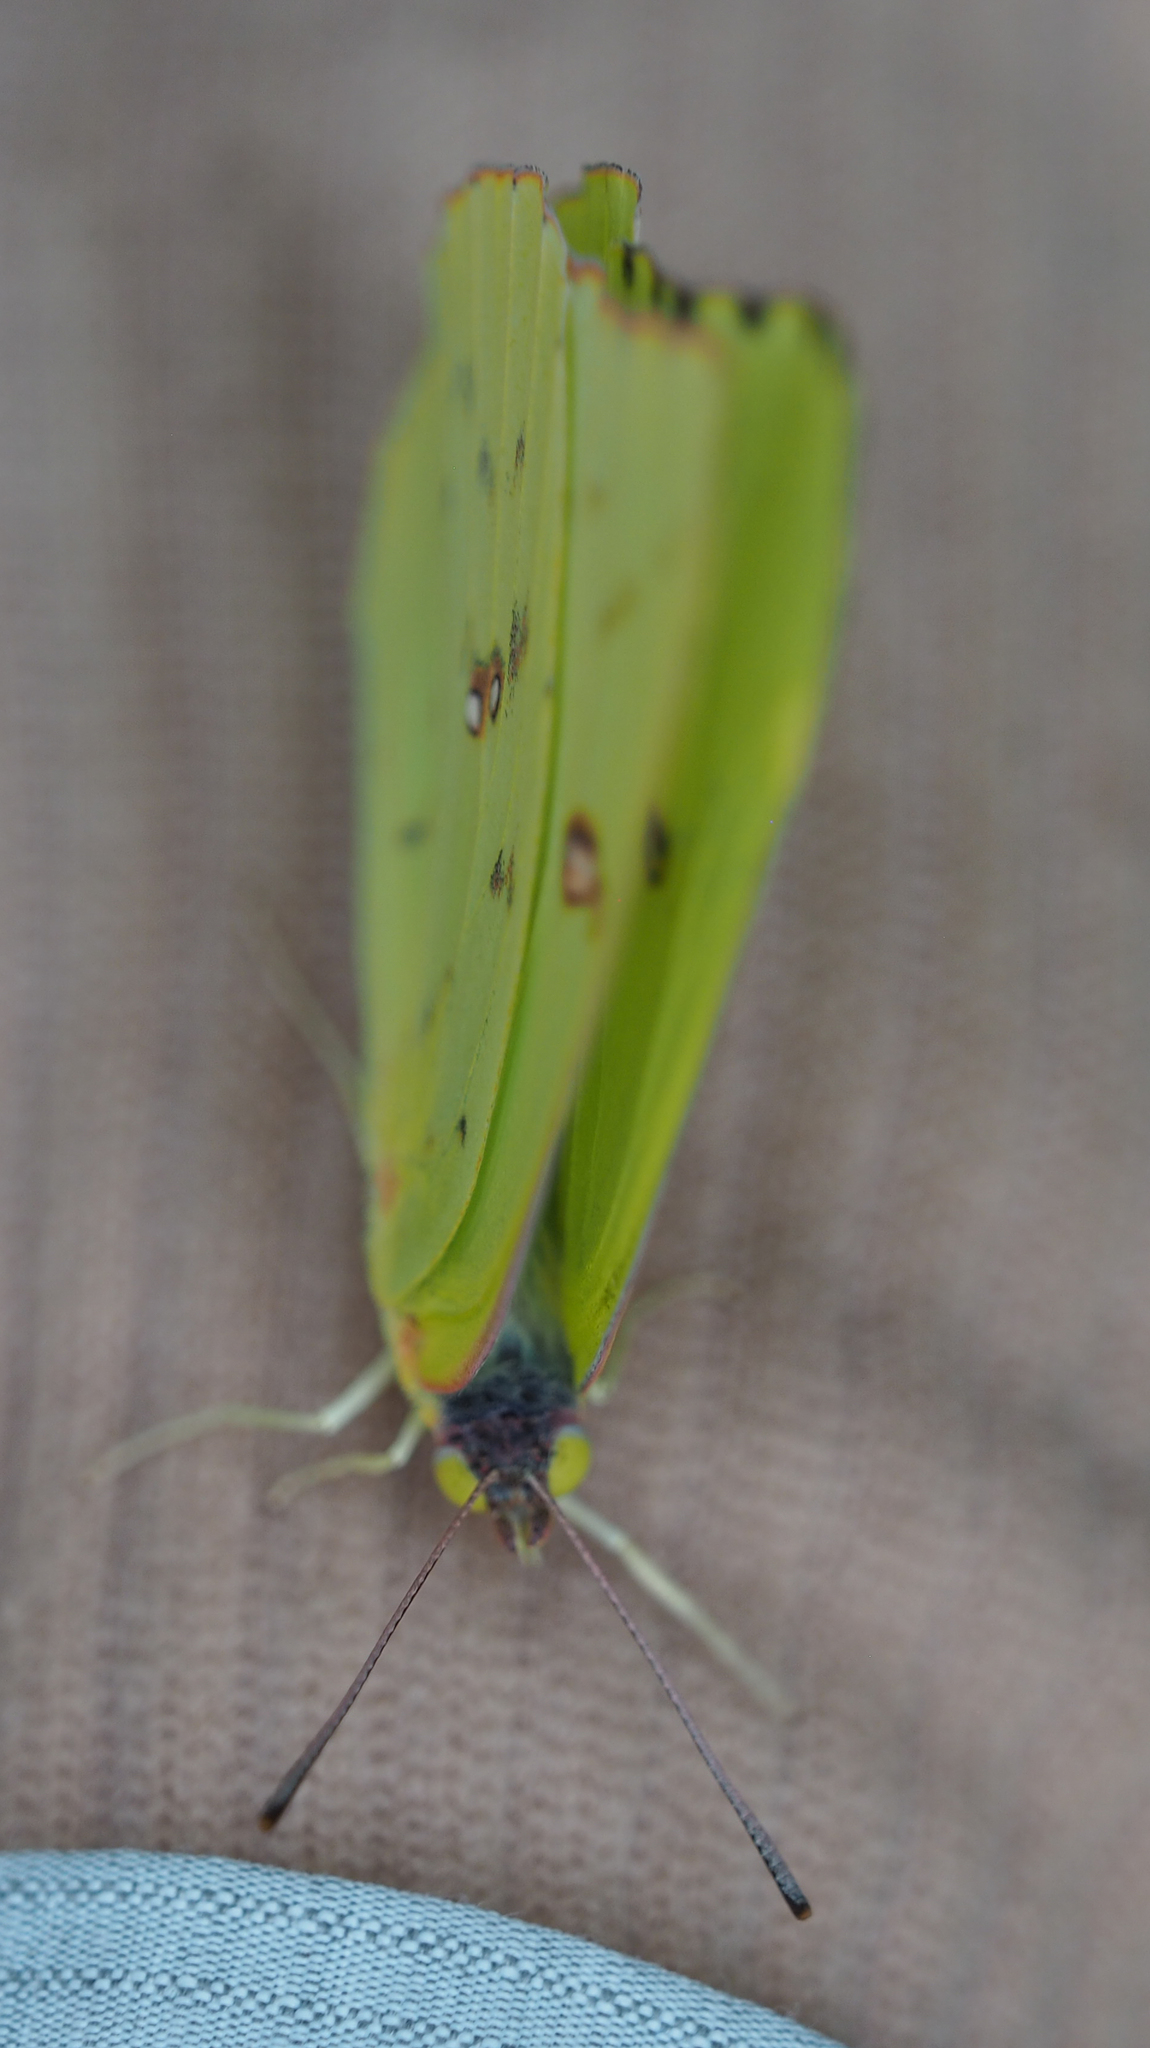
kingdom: Animalia
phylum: Arthropoda
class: Insecta
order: Lepidoptera
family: Pieridae
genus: Phoebis
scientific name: Phoebis sennae
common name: Cloudless sulphur
